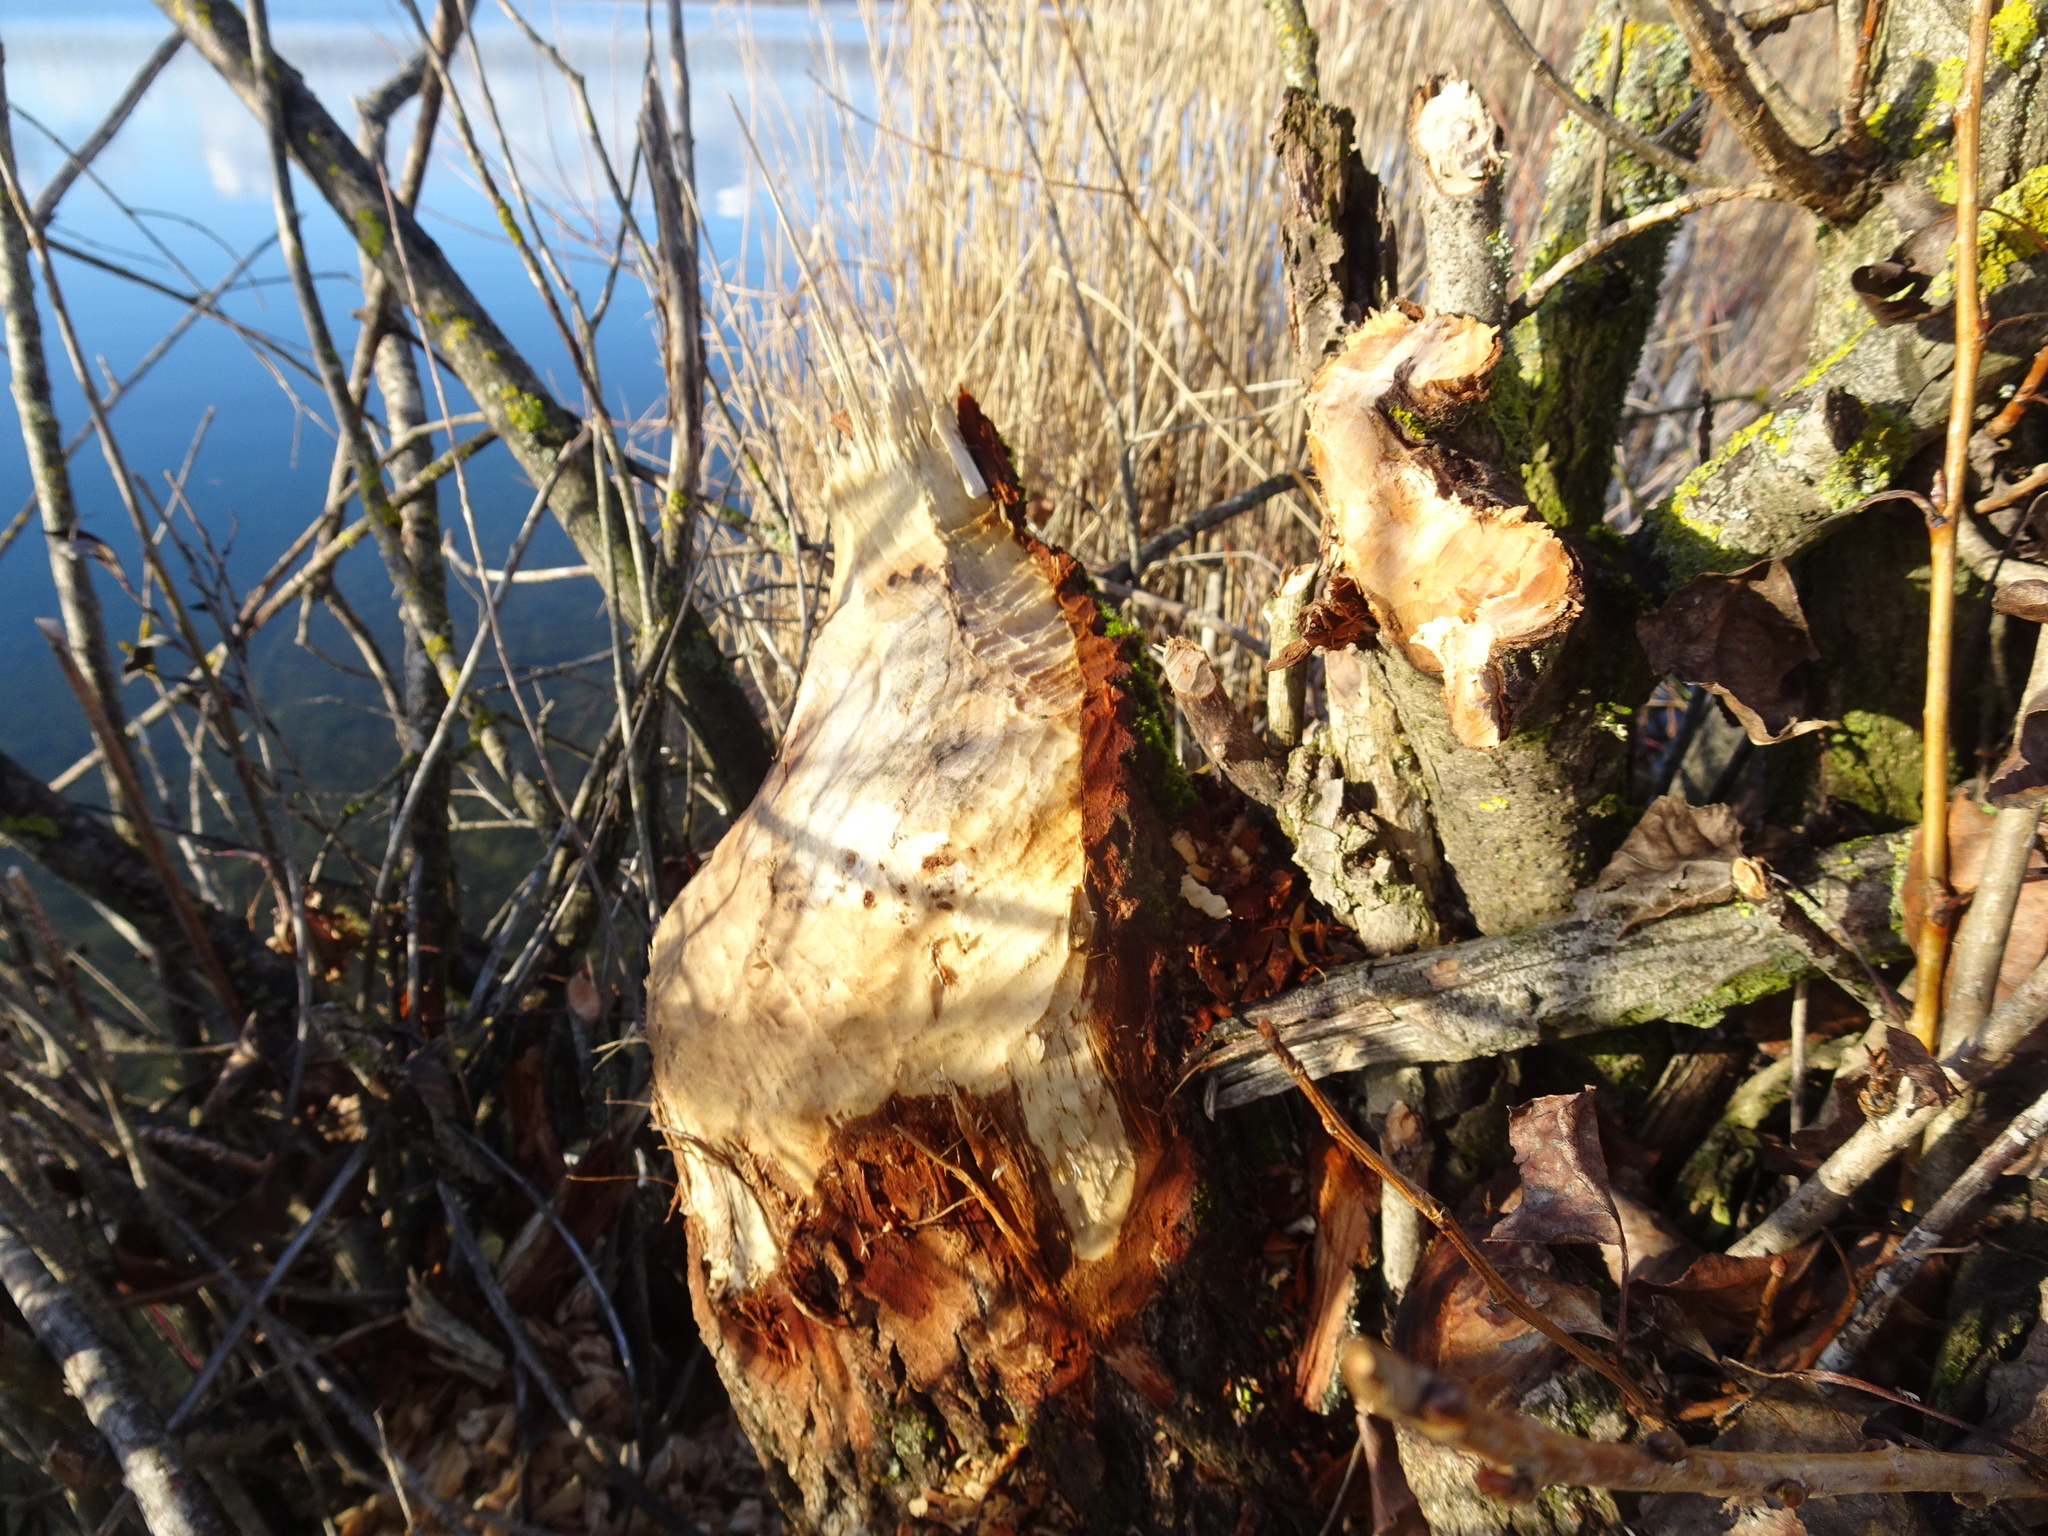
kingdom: Animalia
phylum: Chordata
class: Mammalia
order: Rodentia
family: Castoridae
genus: Castor
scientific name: Castor fiber
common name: Eurasian beaver
